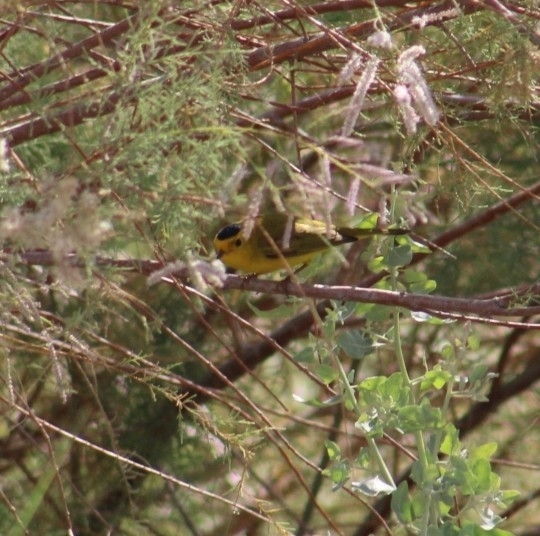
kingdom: Animalia
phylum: Chordata
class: Aves
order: Passeriformes
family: Parulidae
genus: Cardellina
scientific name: Cardellina pusilla
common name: Wilson's warbler
